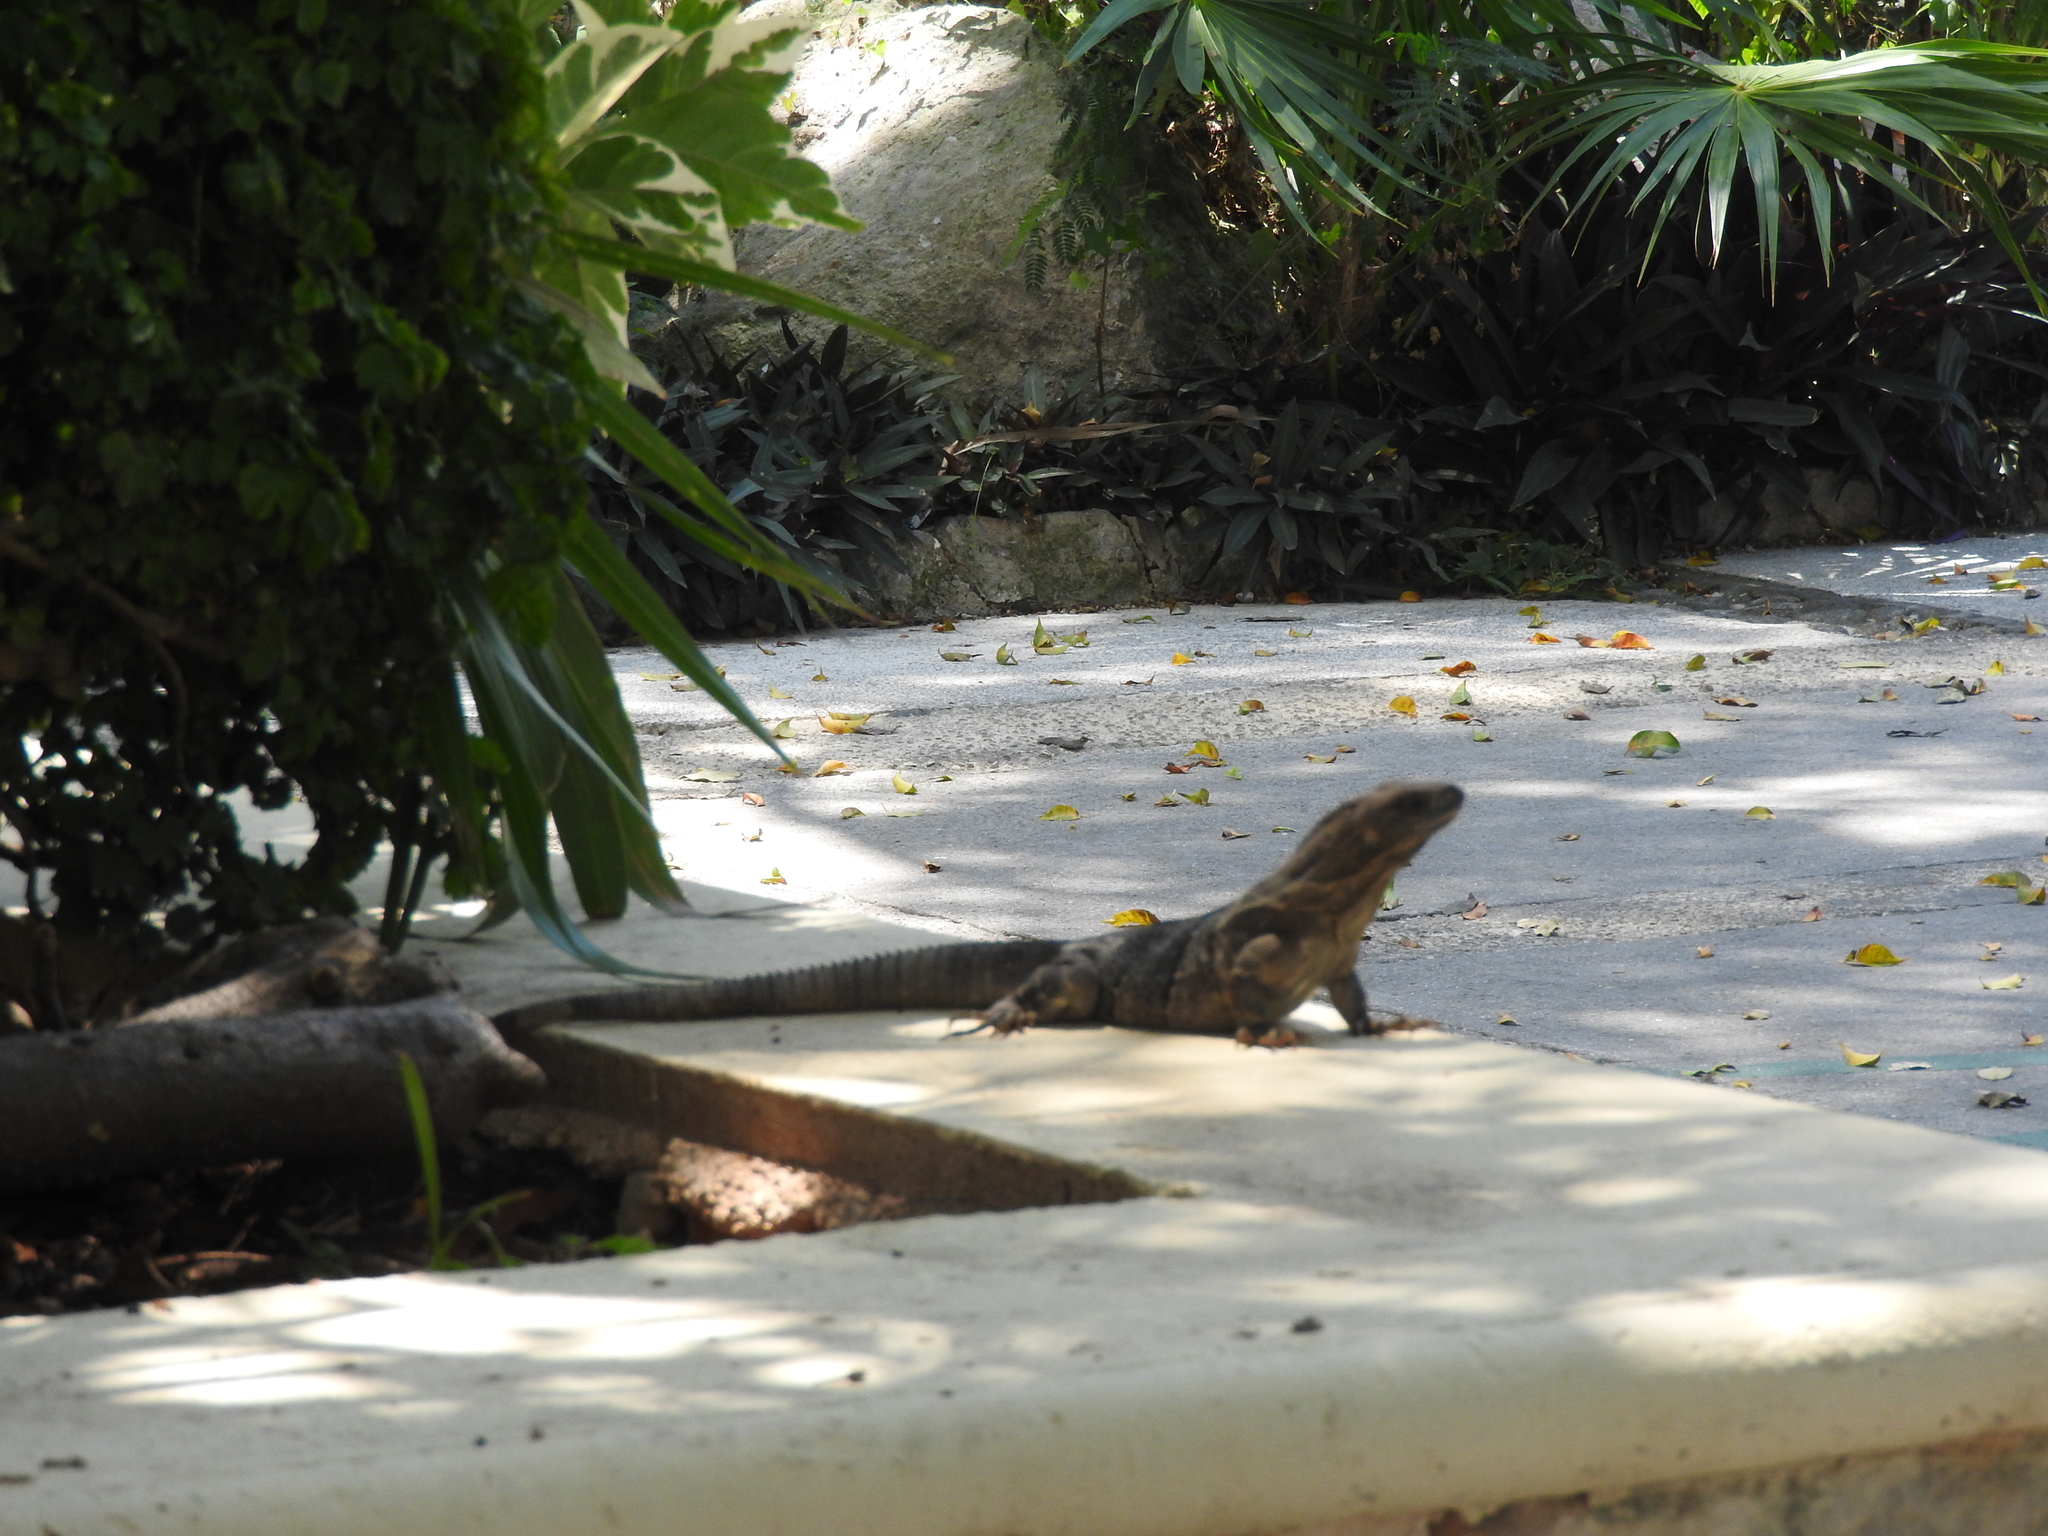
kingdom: Animalia
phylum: Chordata
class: Squamata
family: Iguanidae
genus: Ctenosaura
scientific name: Ctenosaura similis
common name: Black spiny-tailed iguana
